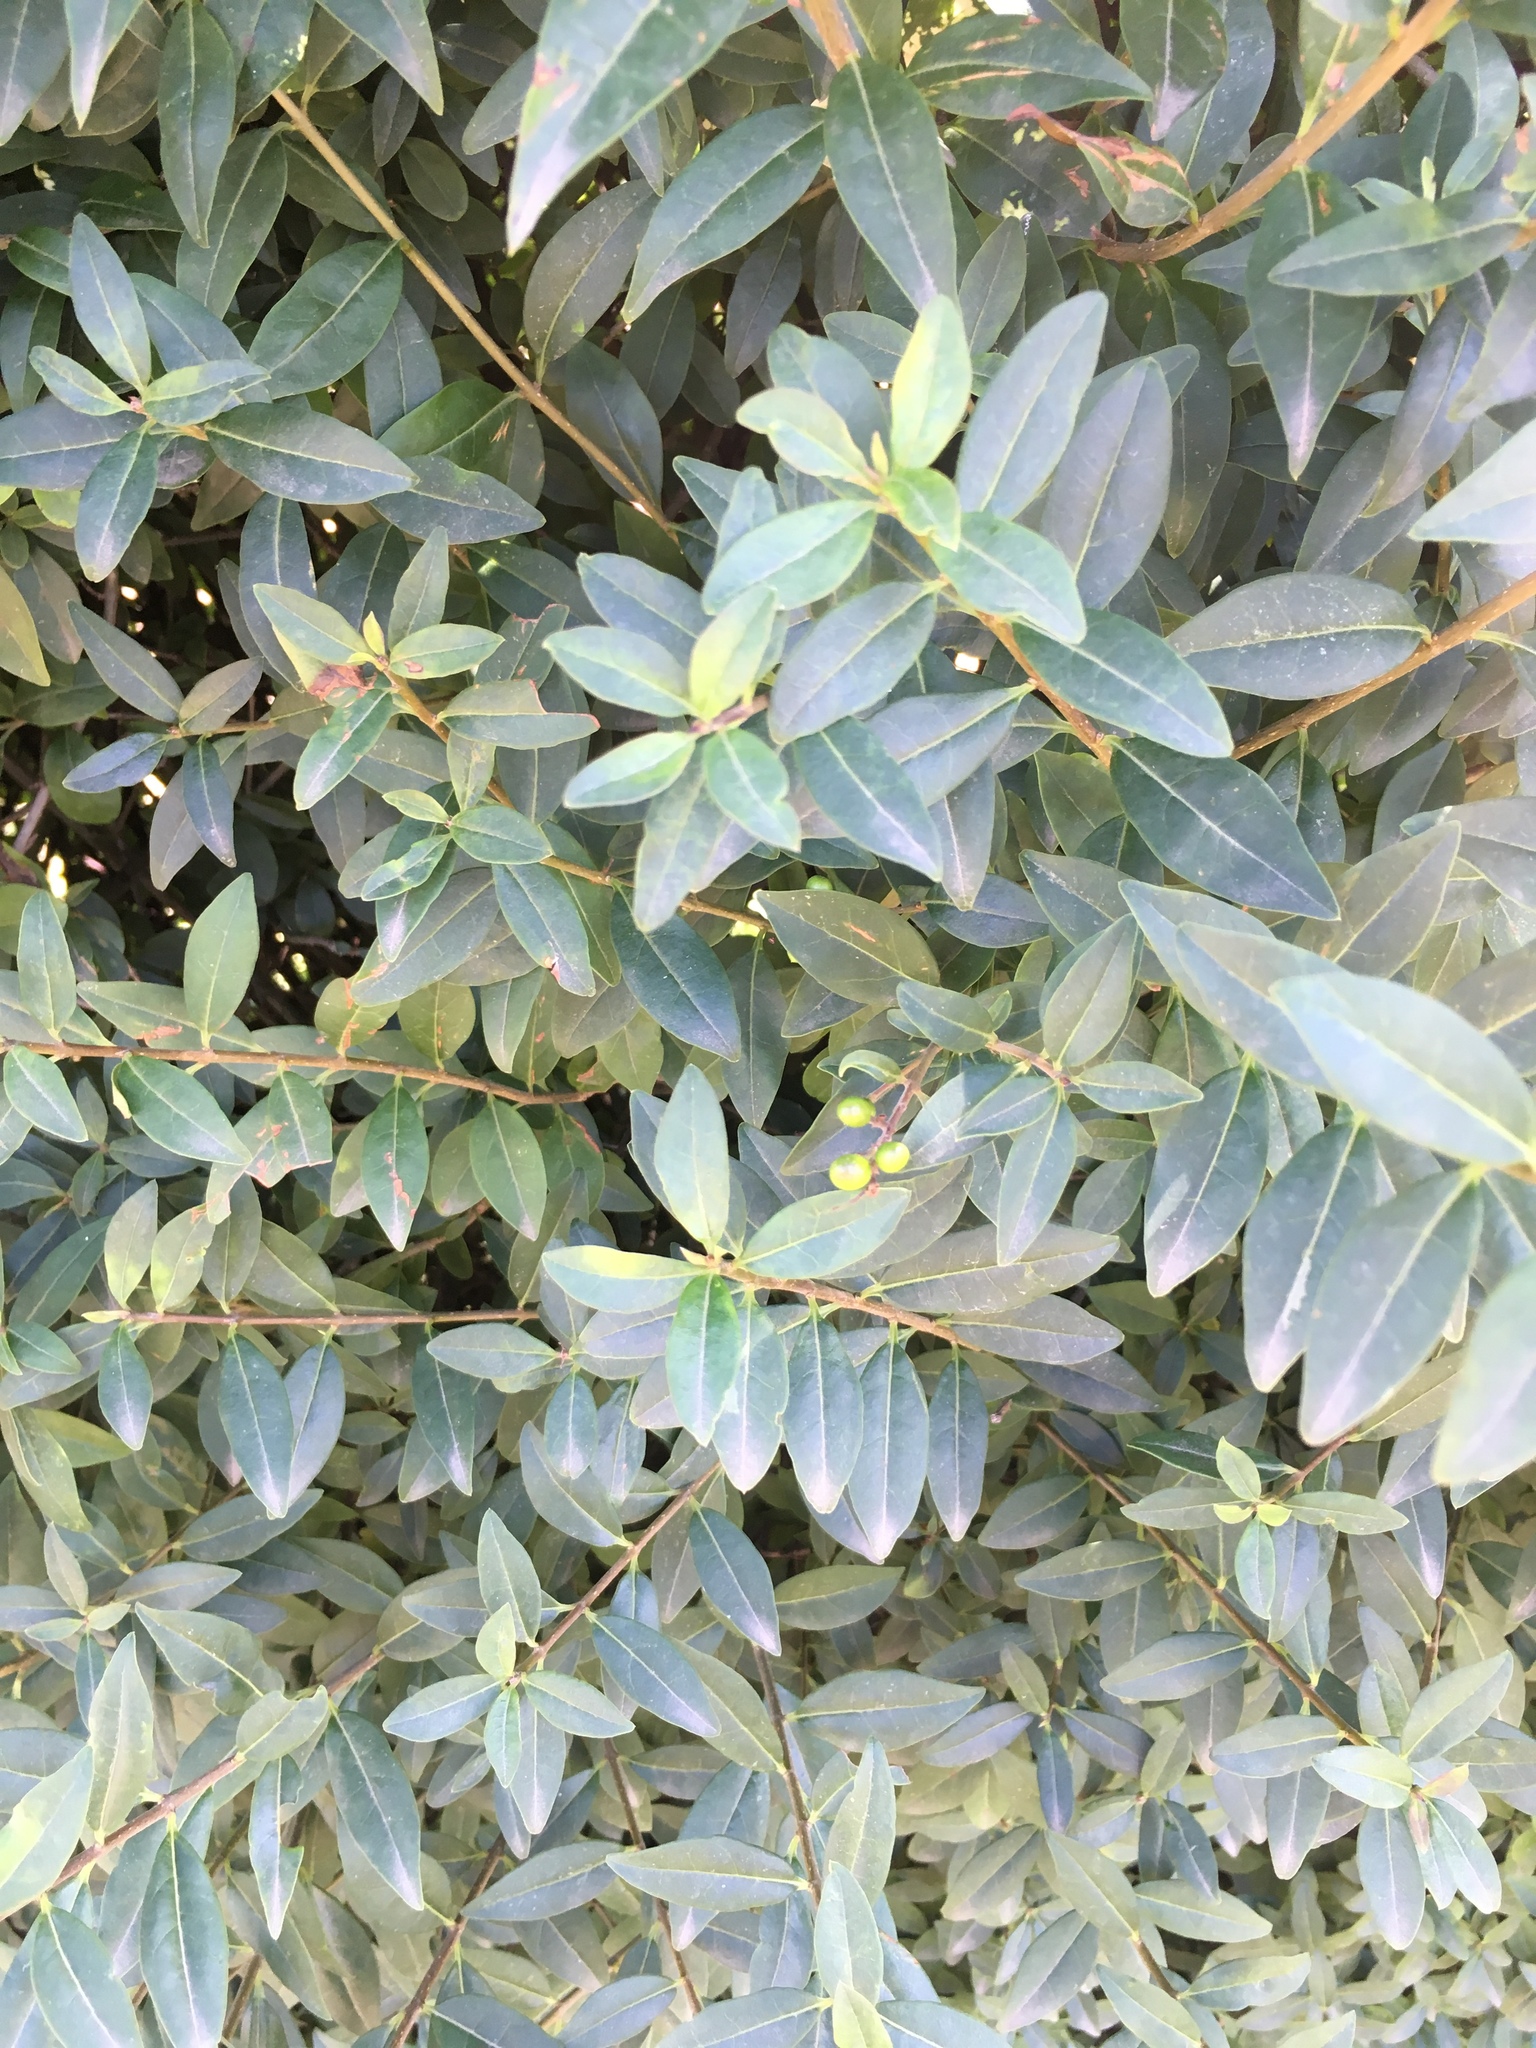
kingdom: Plantae
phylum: Tracheophyta
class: Magnoliopsida
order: Lamiales
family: Oleaceae
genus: Ligustrum
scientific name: Ligustrum vulgare
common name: Wild privet
